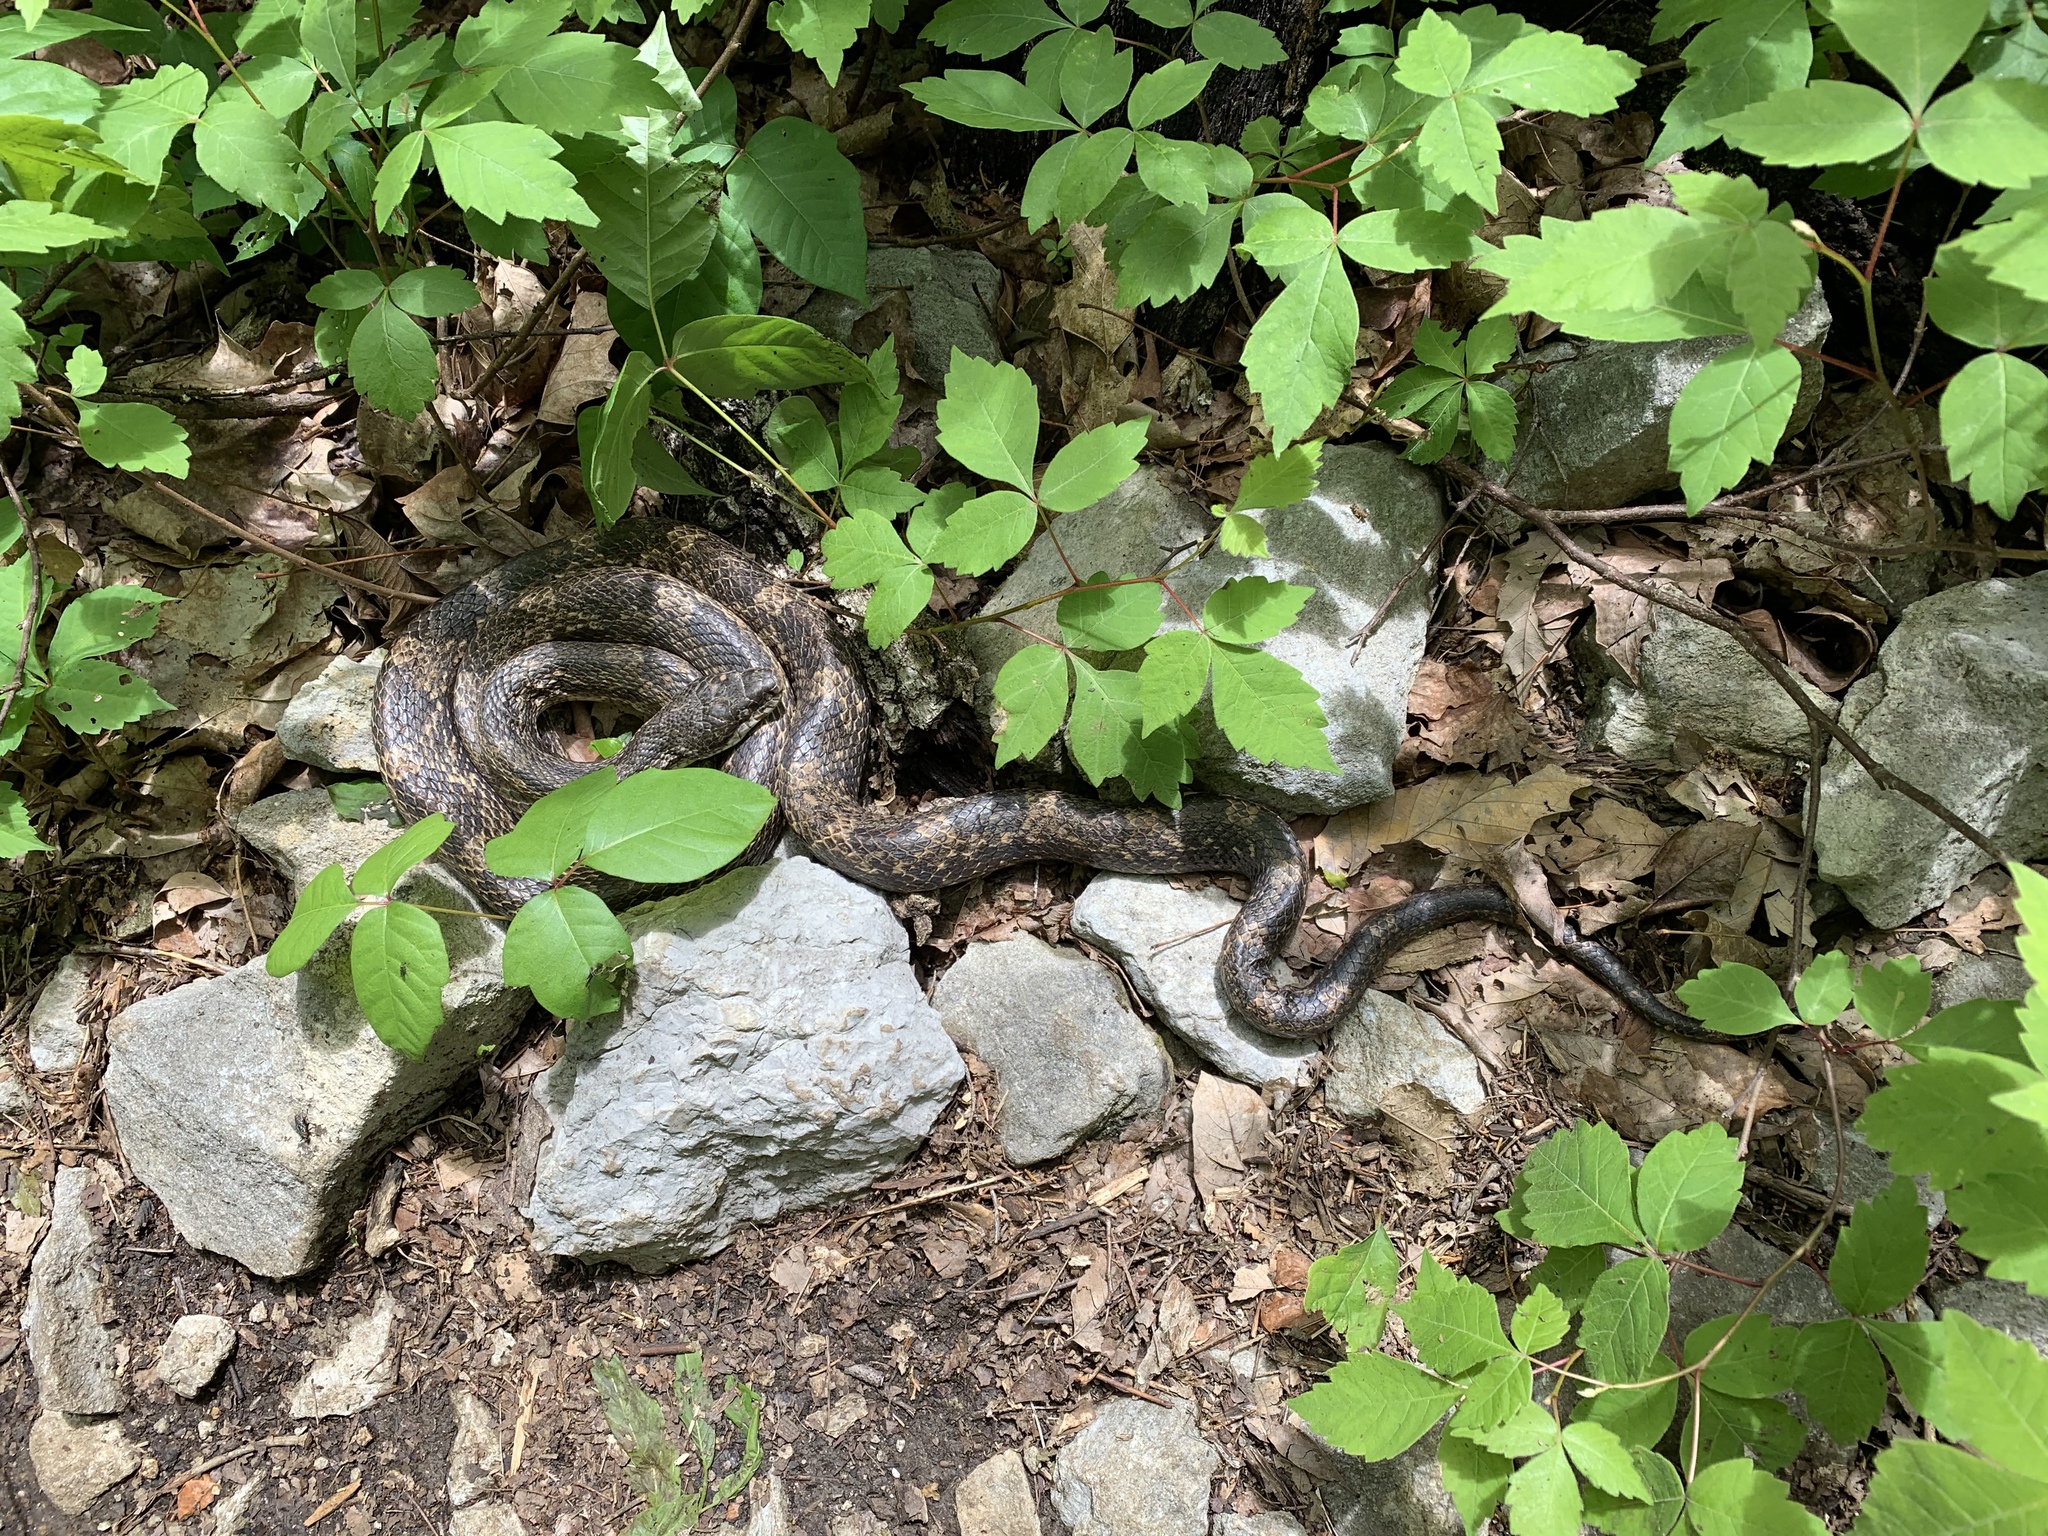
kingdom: Animalia
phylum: Chordata
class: Squamata
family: Colubridae
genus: Pantherophis
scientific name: Pantherophis spiloides
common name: Gray rat snake
